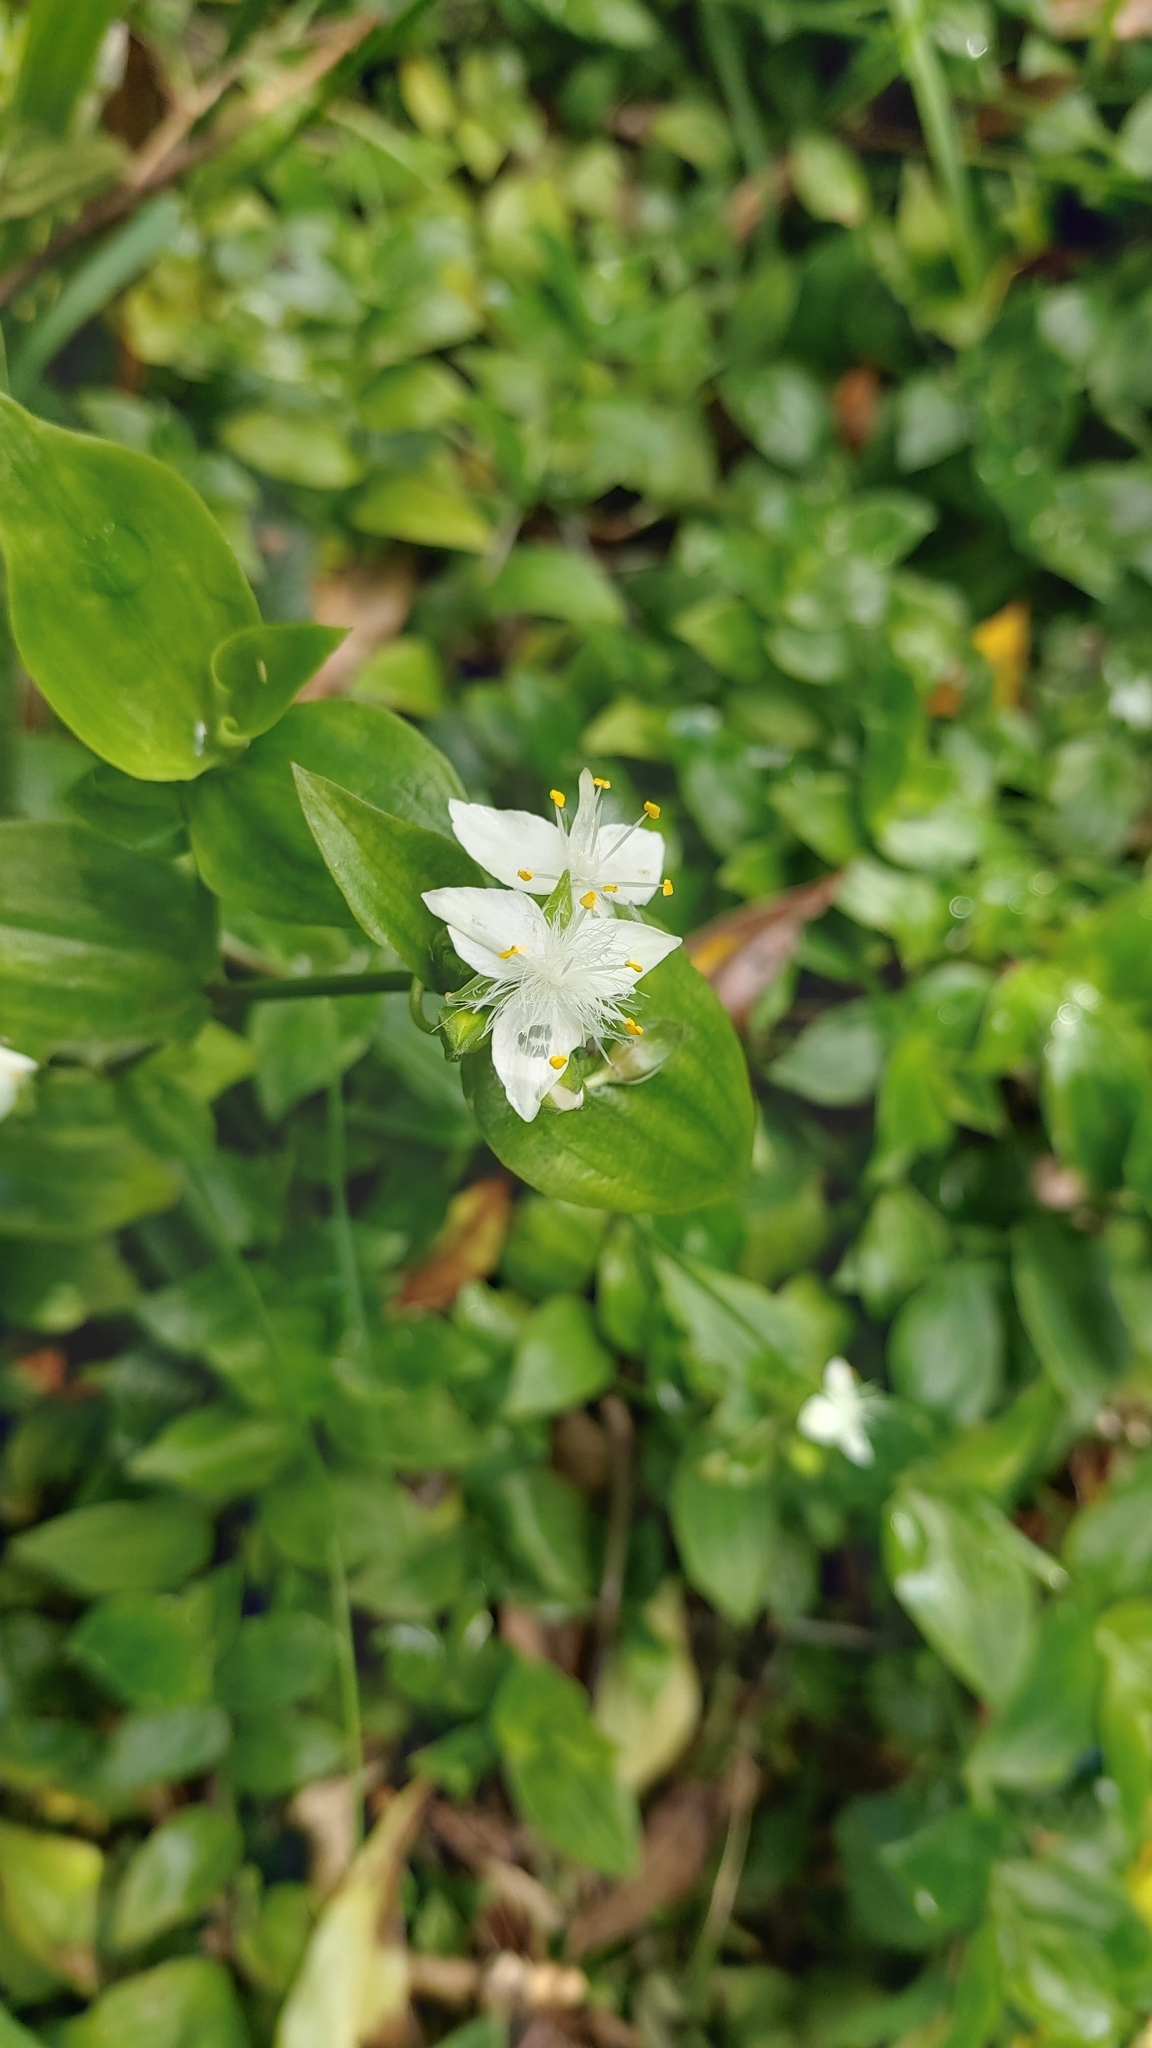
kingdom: Plantae
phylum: Tracheophyta
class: Liliopsida
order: Commelinales
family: Commelinaceae
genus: Tradescantia
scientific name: Tradescantia fluminensis
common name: Wandering-jew
